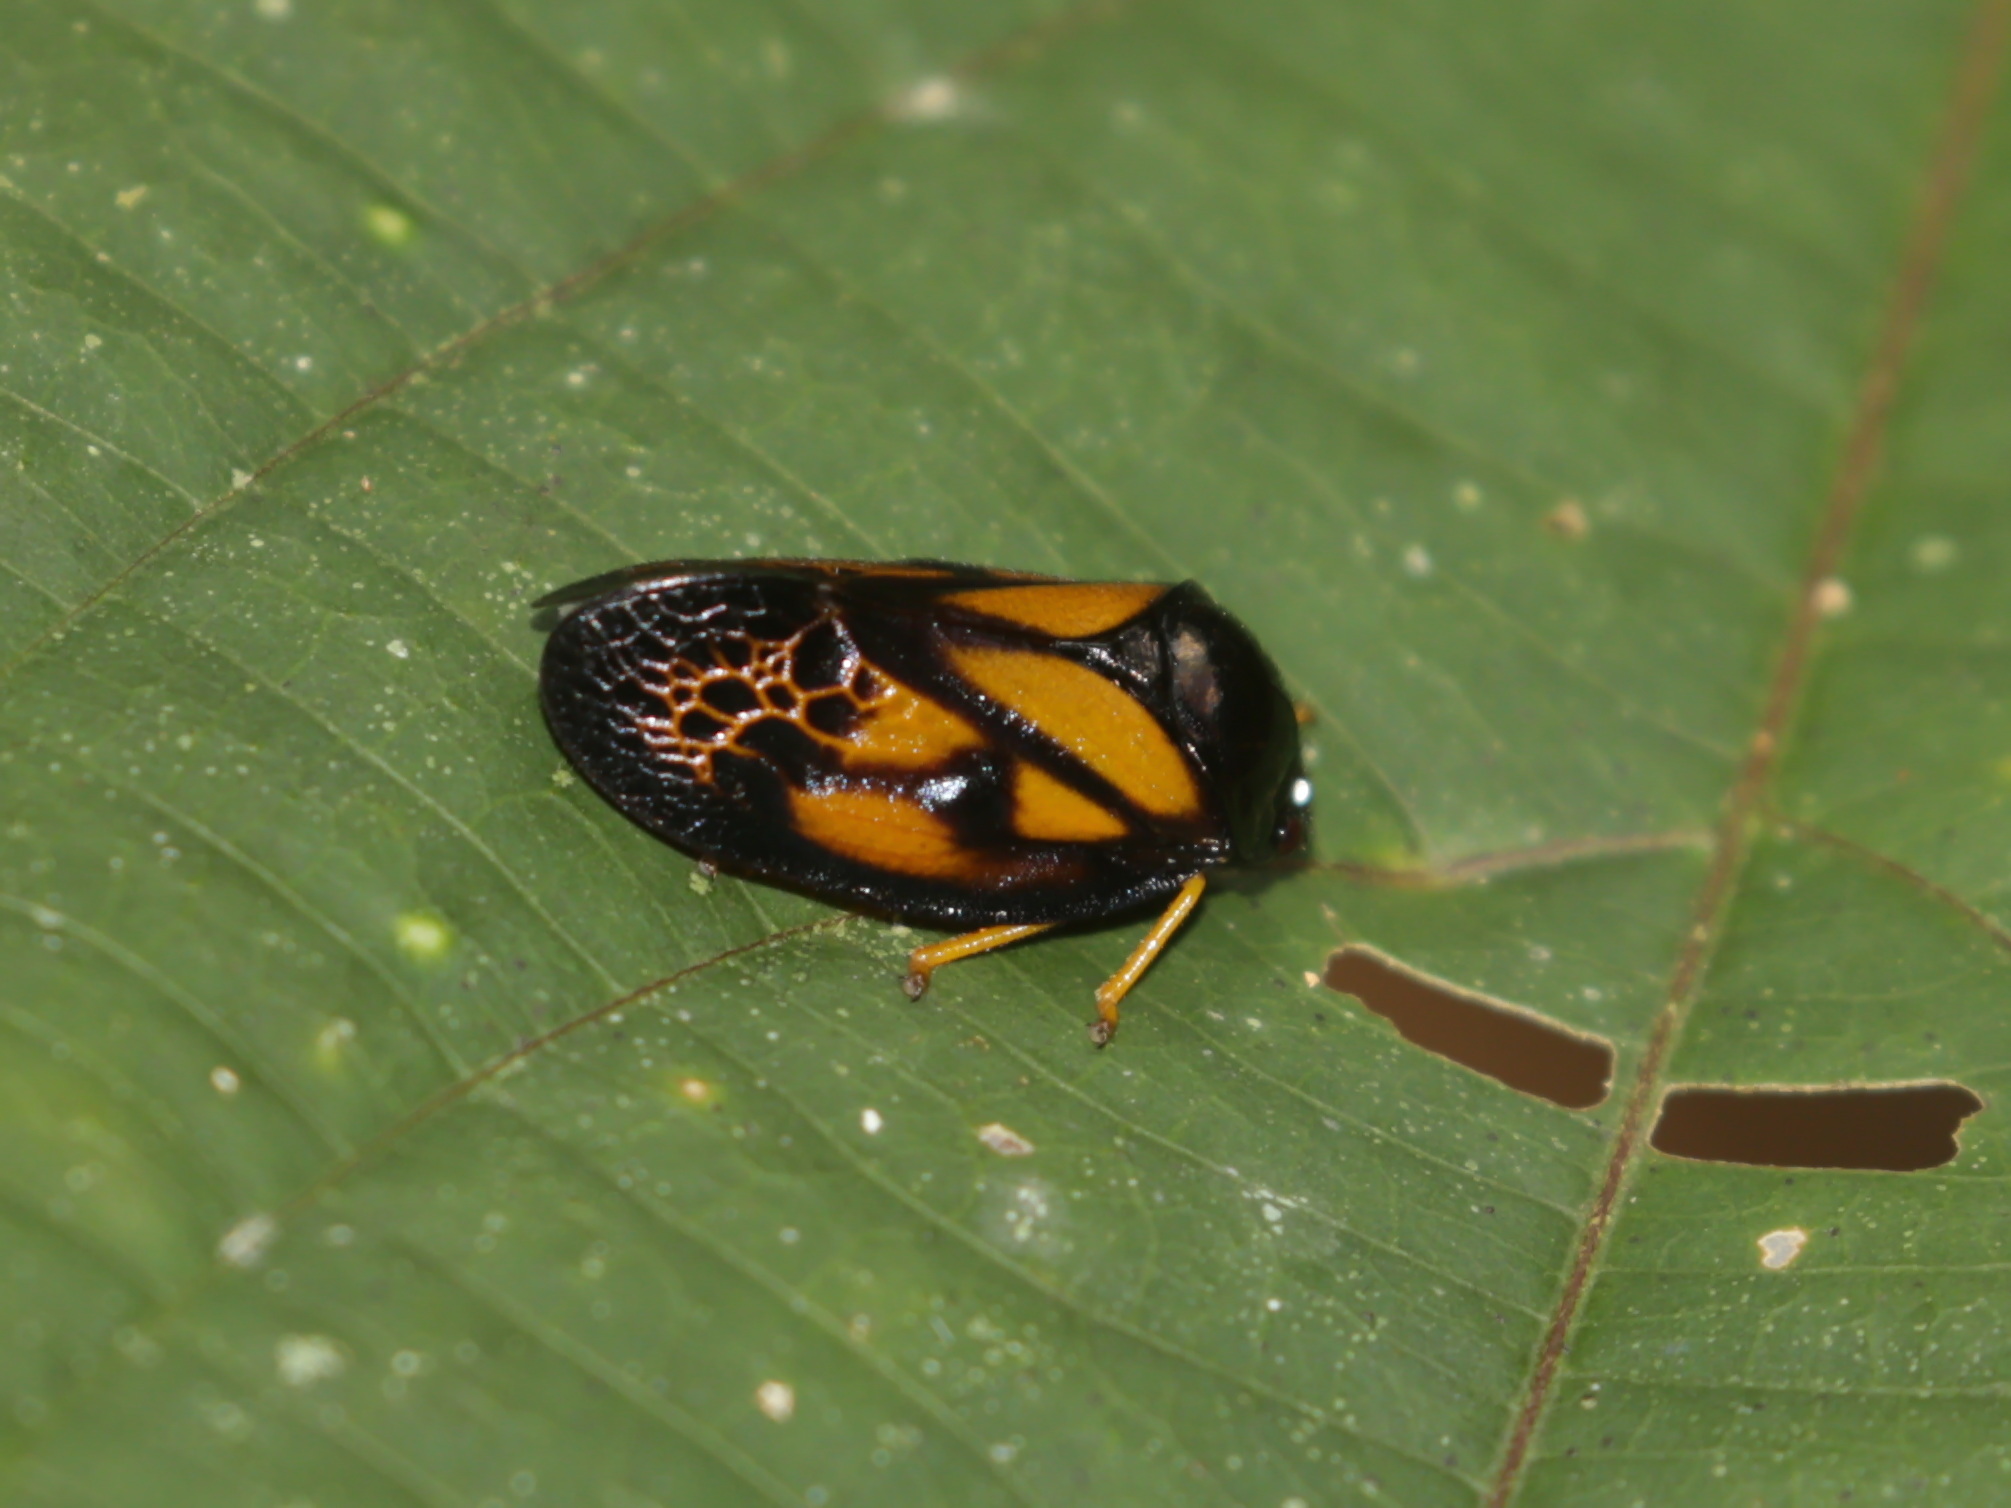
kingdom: Animalia
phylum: Arthropoda
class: Insecta
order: Hemiptera
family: Cercopidae
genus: Leptataspis
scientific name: Leptataspis perakensis
